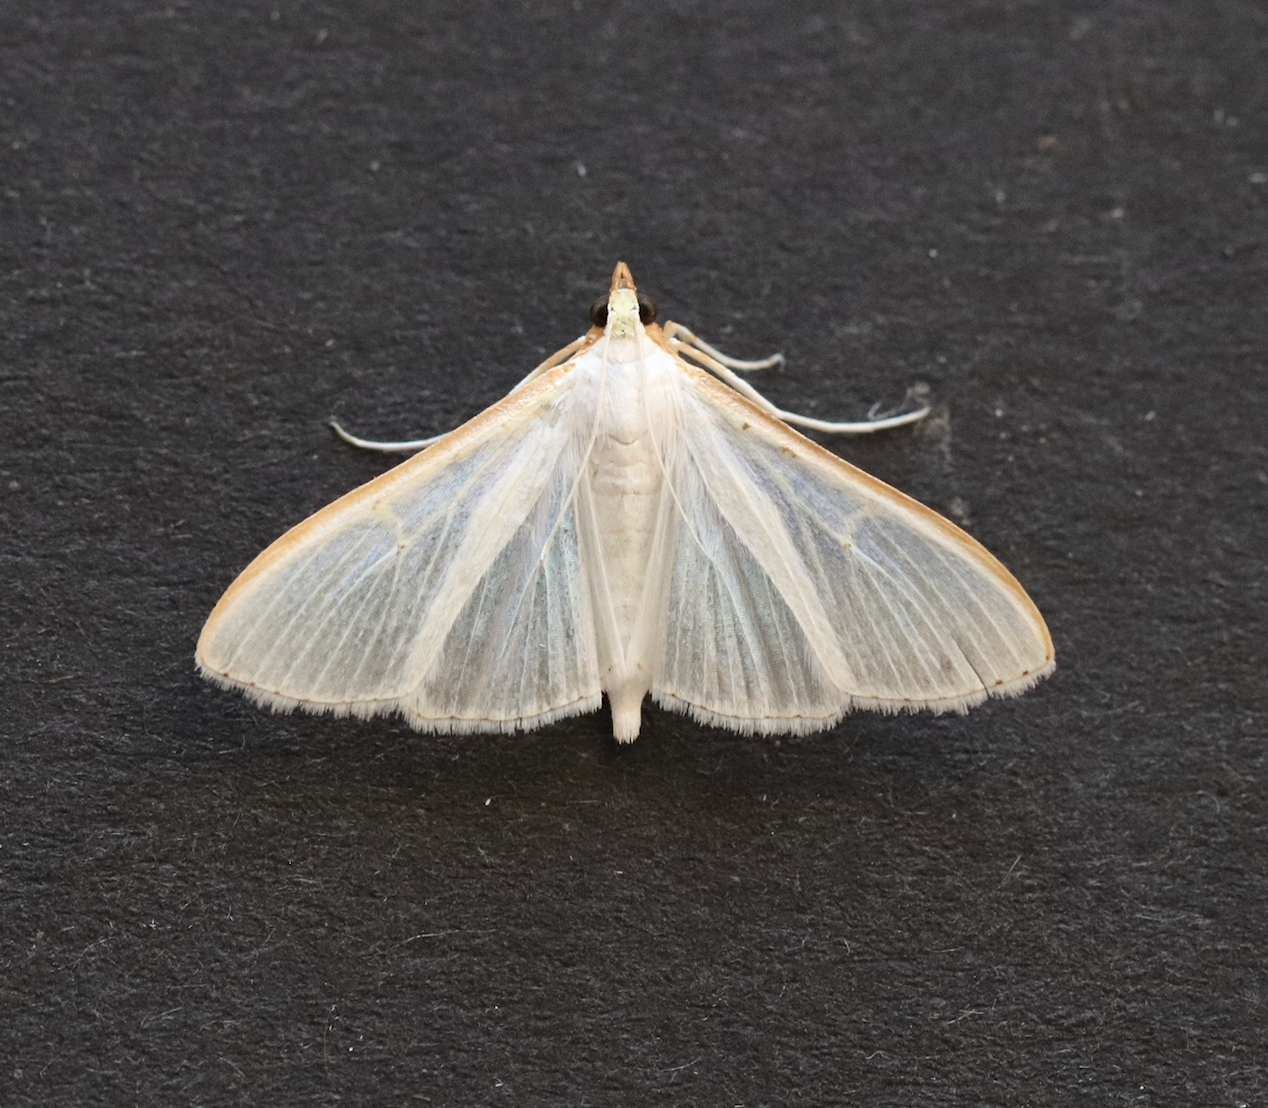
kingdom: Animalia
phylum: Arthropoda
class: Insecta
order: Lepidoptera
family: Crambidae
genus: Palpita
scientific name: Palpita vitrealis
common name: Olive-tree pearl
